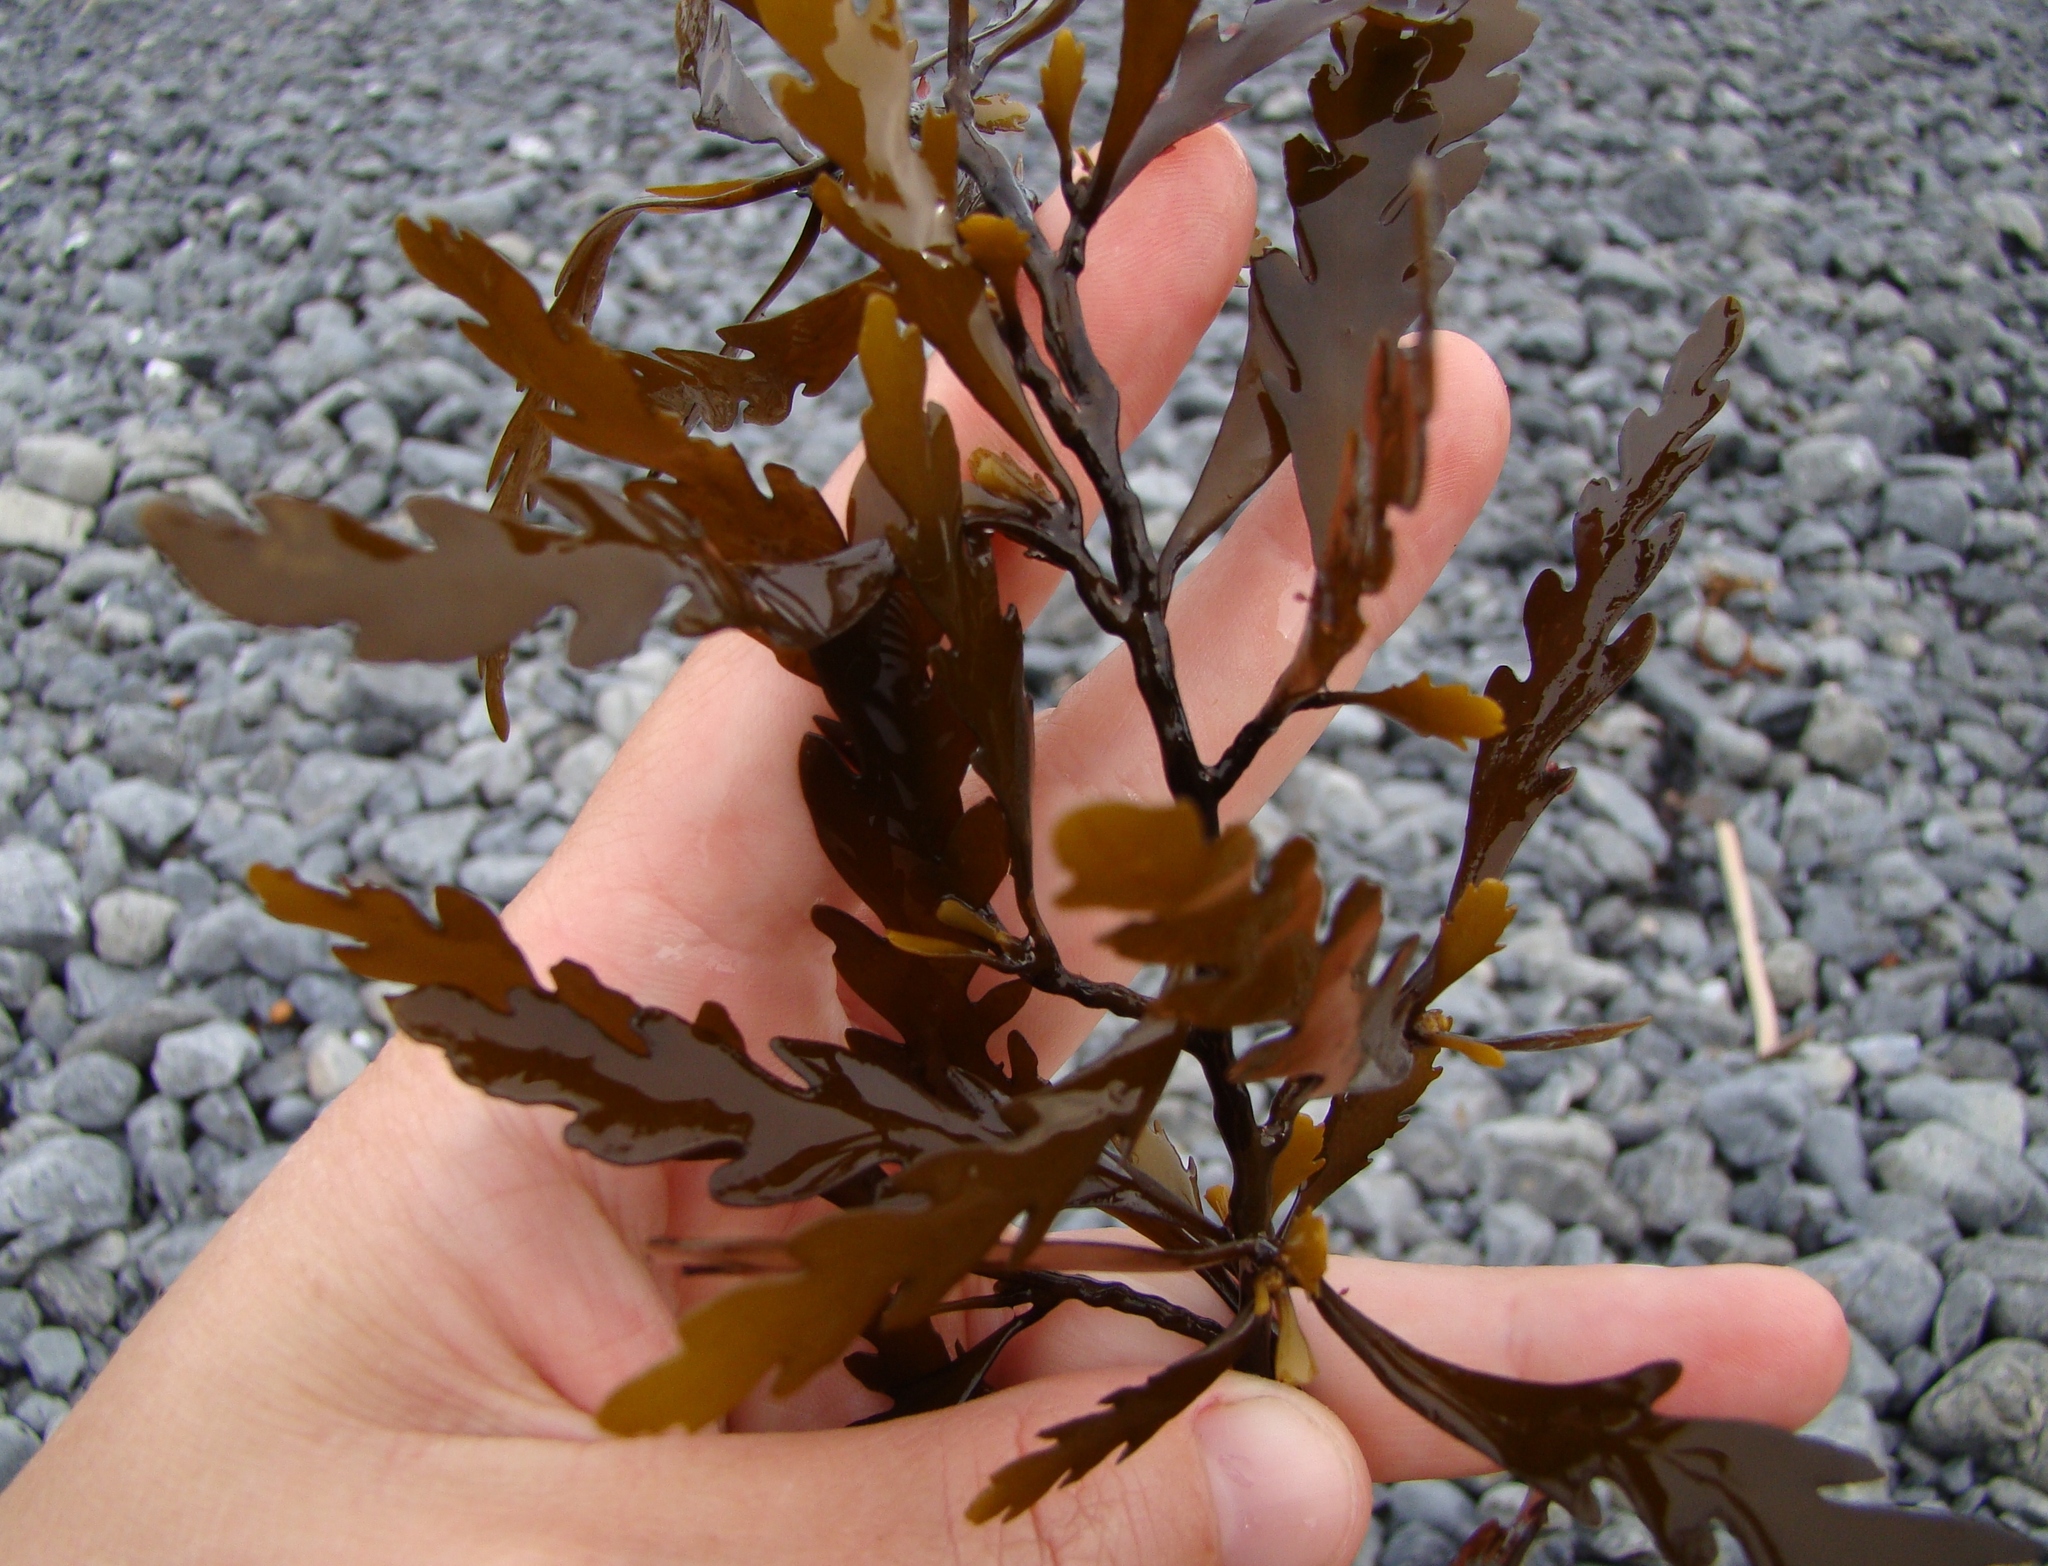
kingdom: Chromista
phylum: Ochrophyta
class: Phaeophyceae
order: Fucales
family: Sargassaceae
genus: Landsburgia
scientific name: Landsburgia quercifolia
